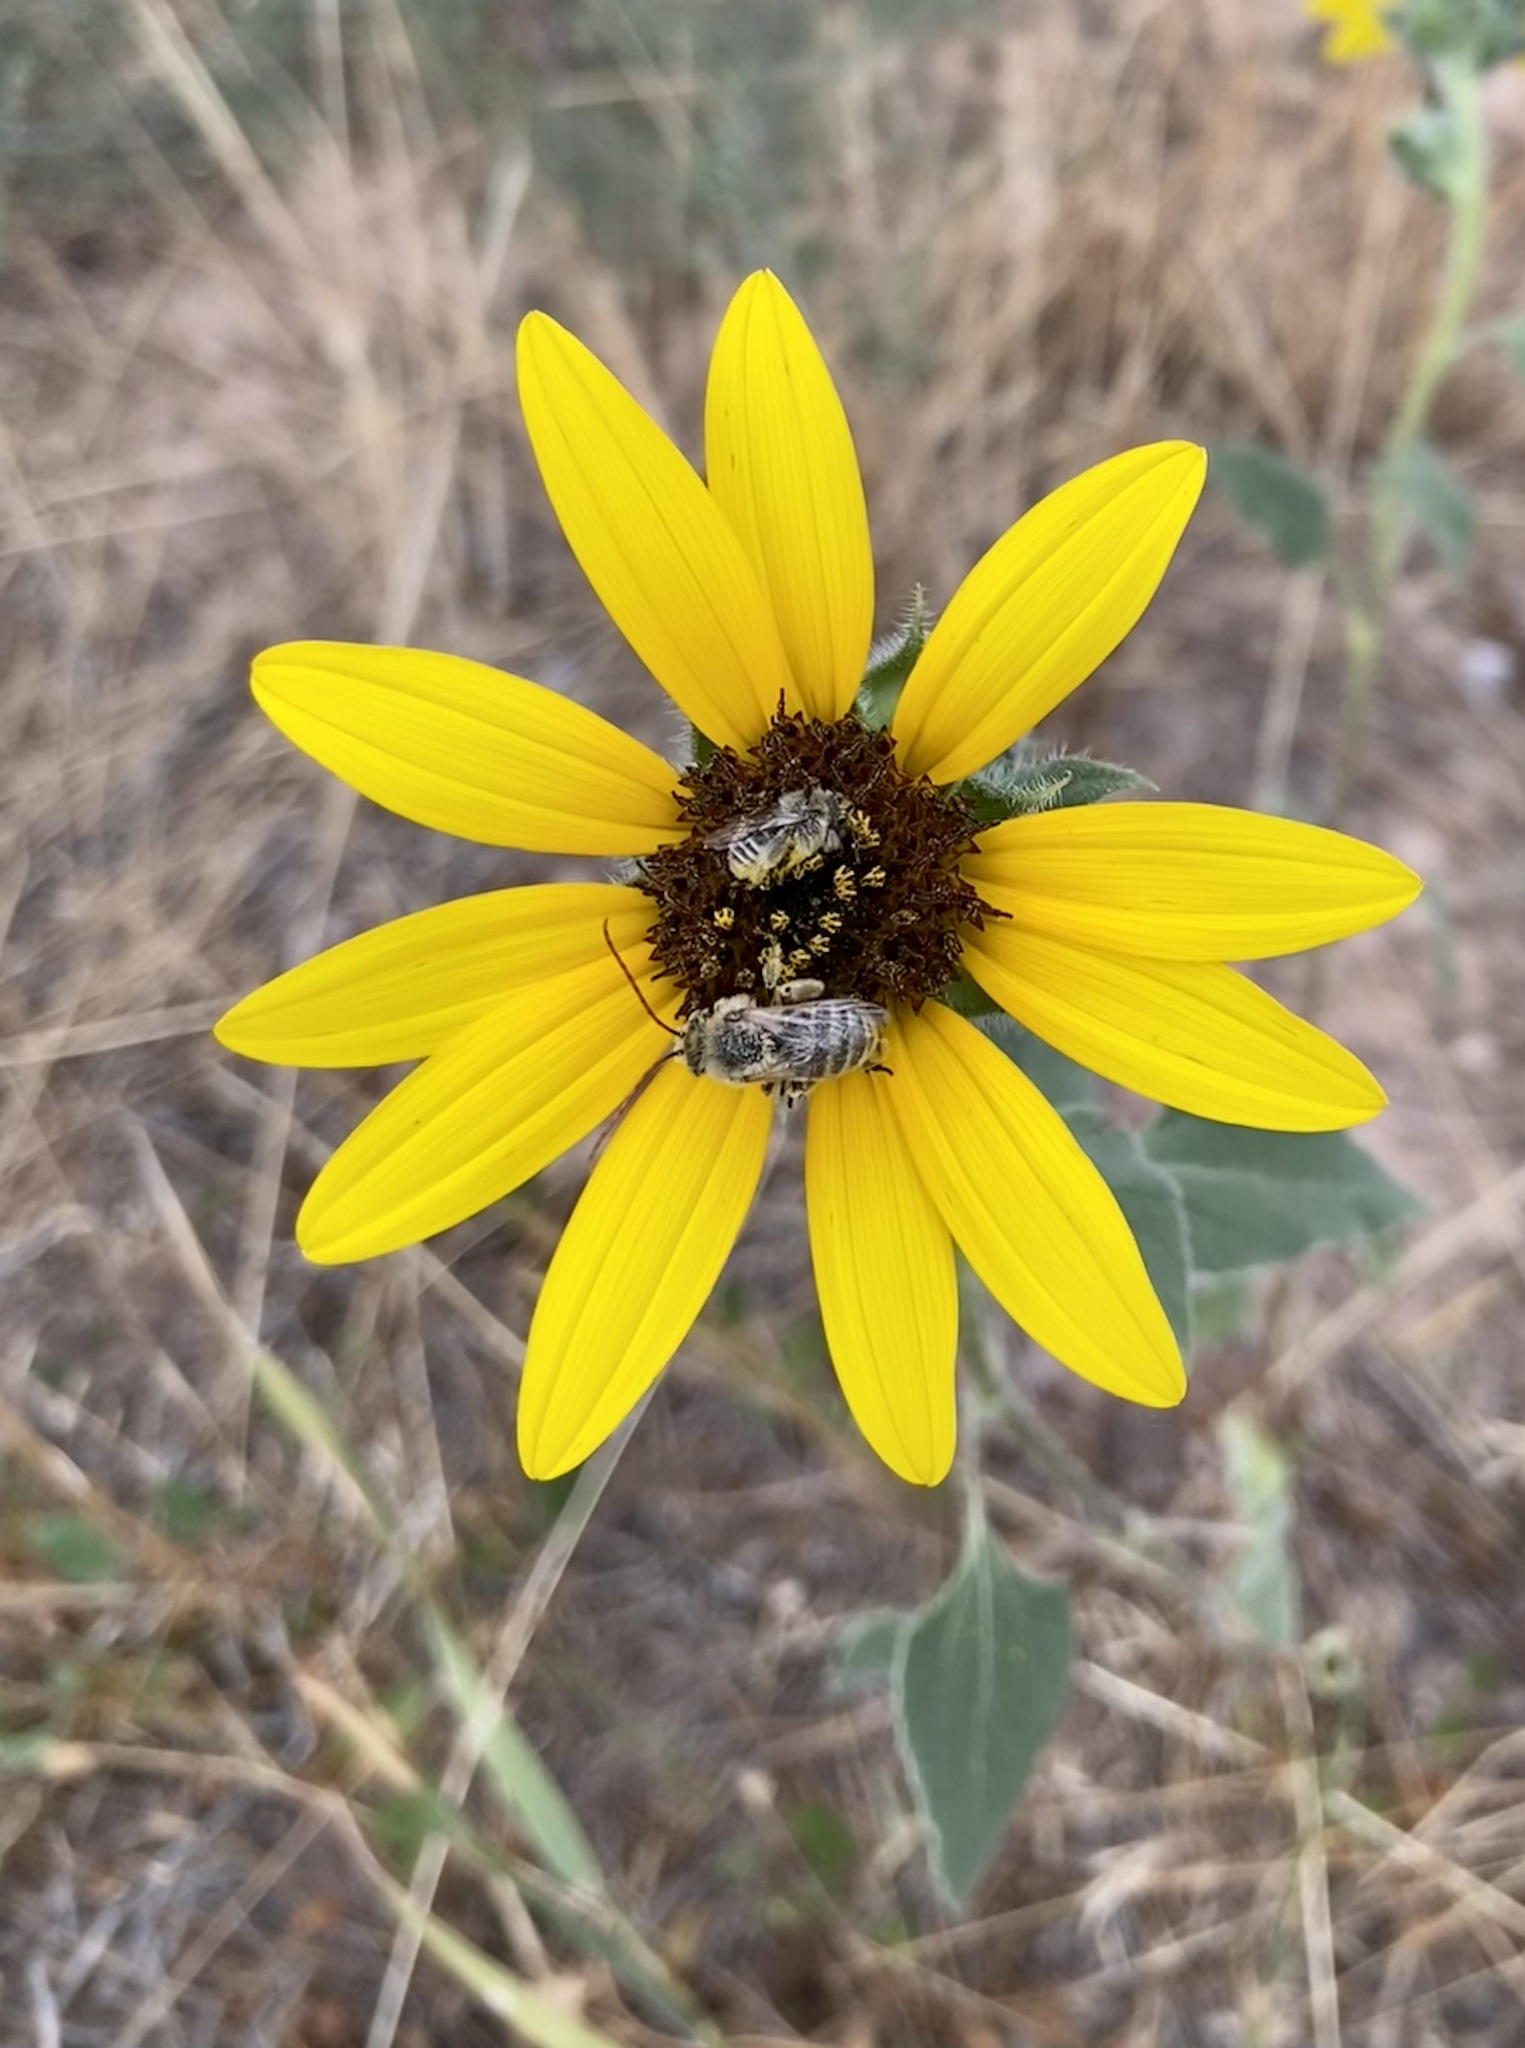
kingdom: Plantae
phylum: Tracheophyta
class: Magnoliopsida
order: Asterales
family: Asteraceae
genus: Helianthus
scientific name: Helianthus petiolaris
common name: Lesser sunflower
